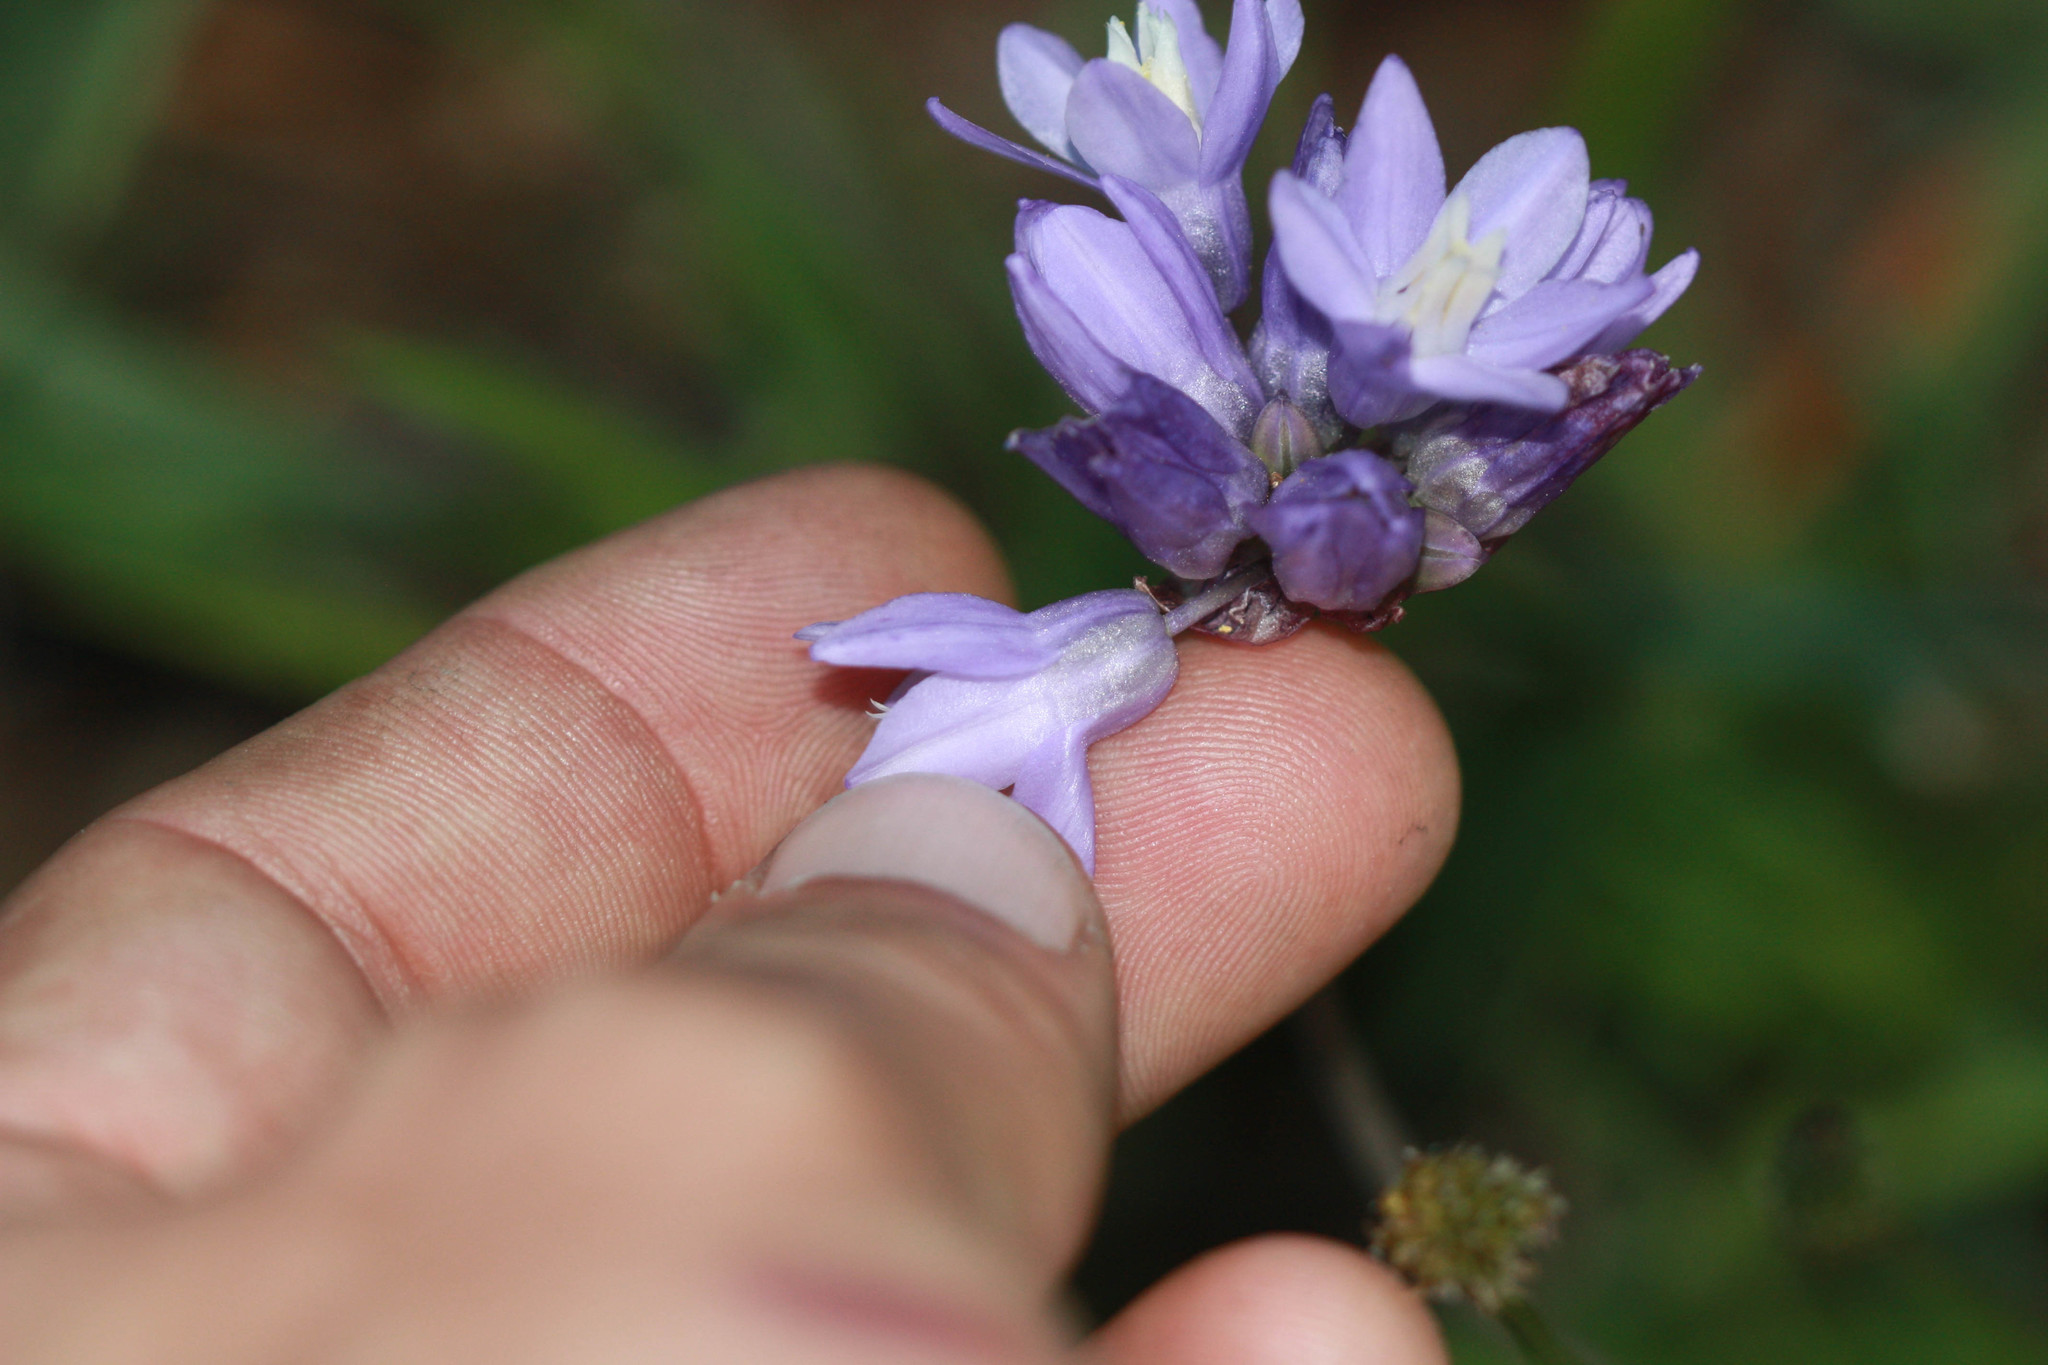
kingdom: Plantae
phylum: Tracheophyta
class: Liliopsida
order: Asparagales
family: Asparagaceae
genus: Dipterostemon
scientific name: Dipterostemon capitatus
